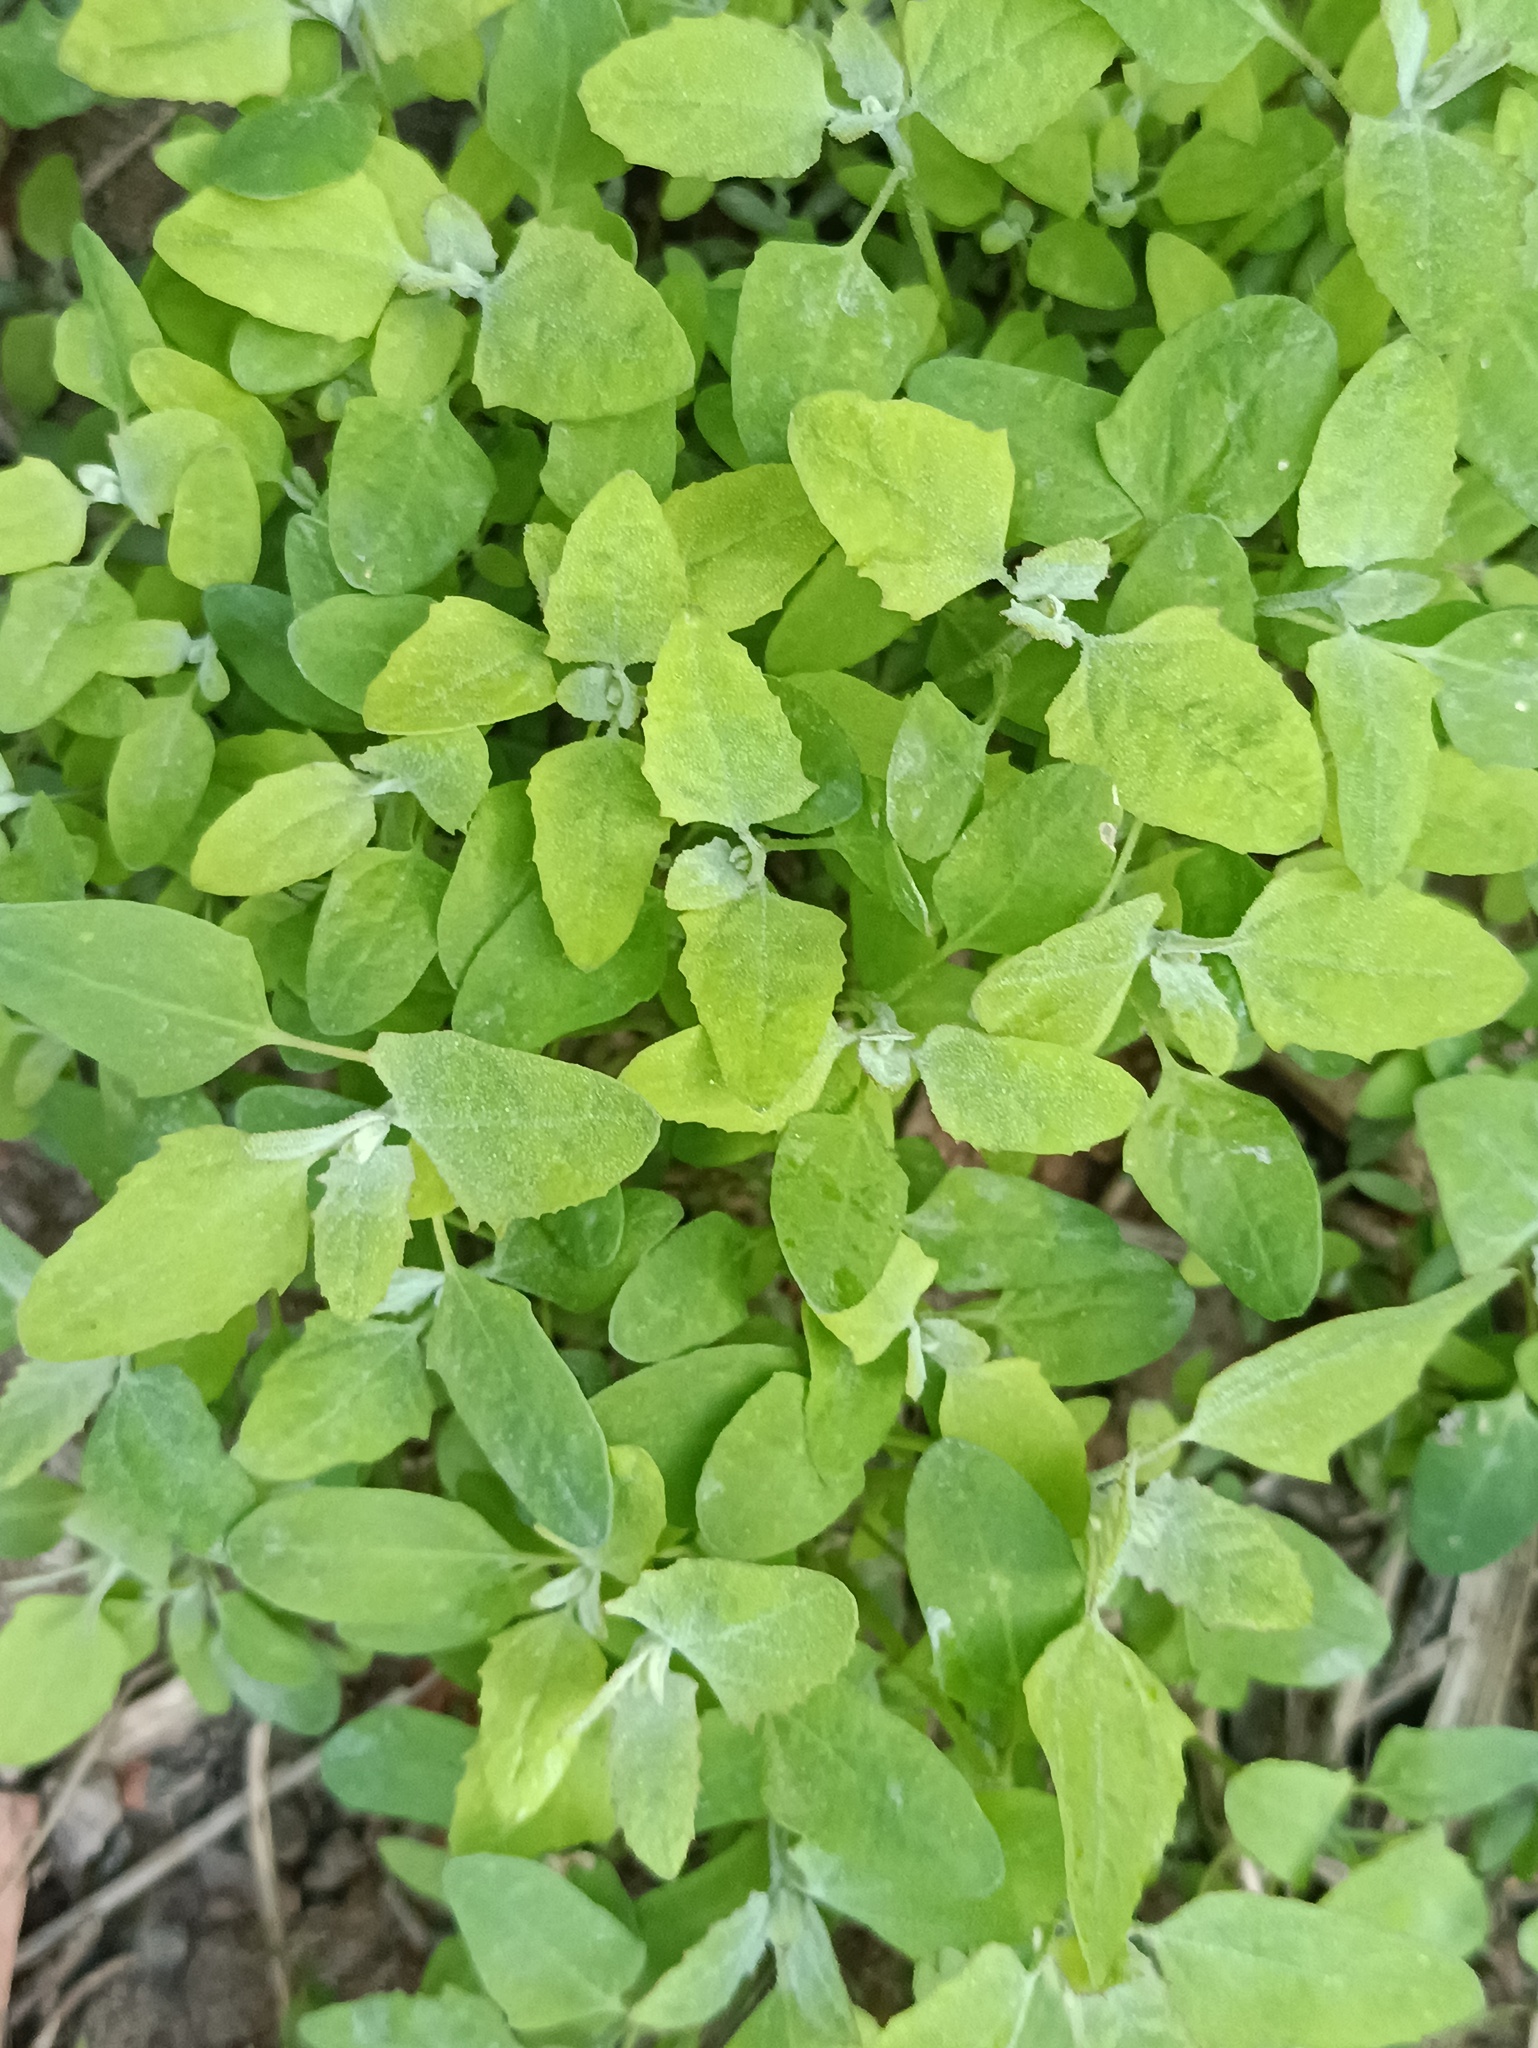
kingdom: Plantae
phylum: Tracheophyta
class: Magnoliopsida
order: Caryophyllales
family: Amaranthaceae
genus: Chenopodium
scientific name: Chenopodium album
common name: Fat-hen
